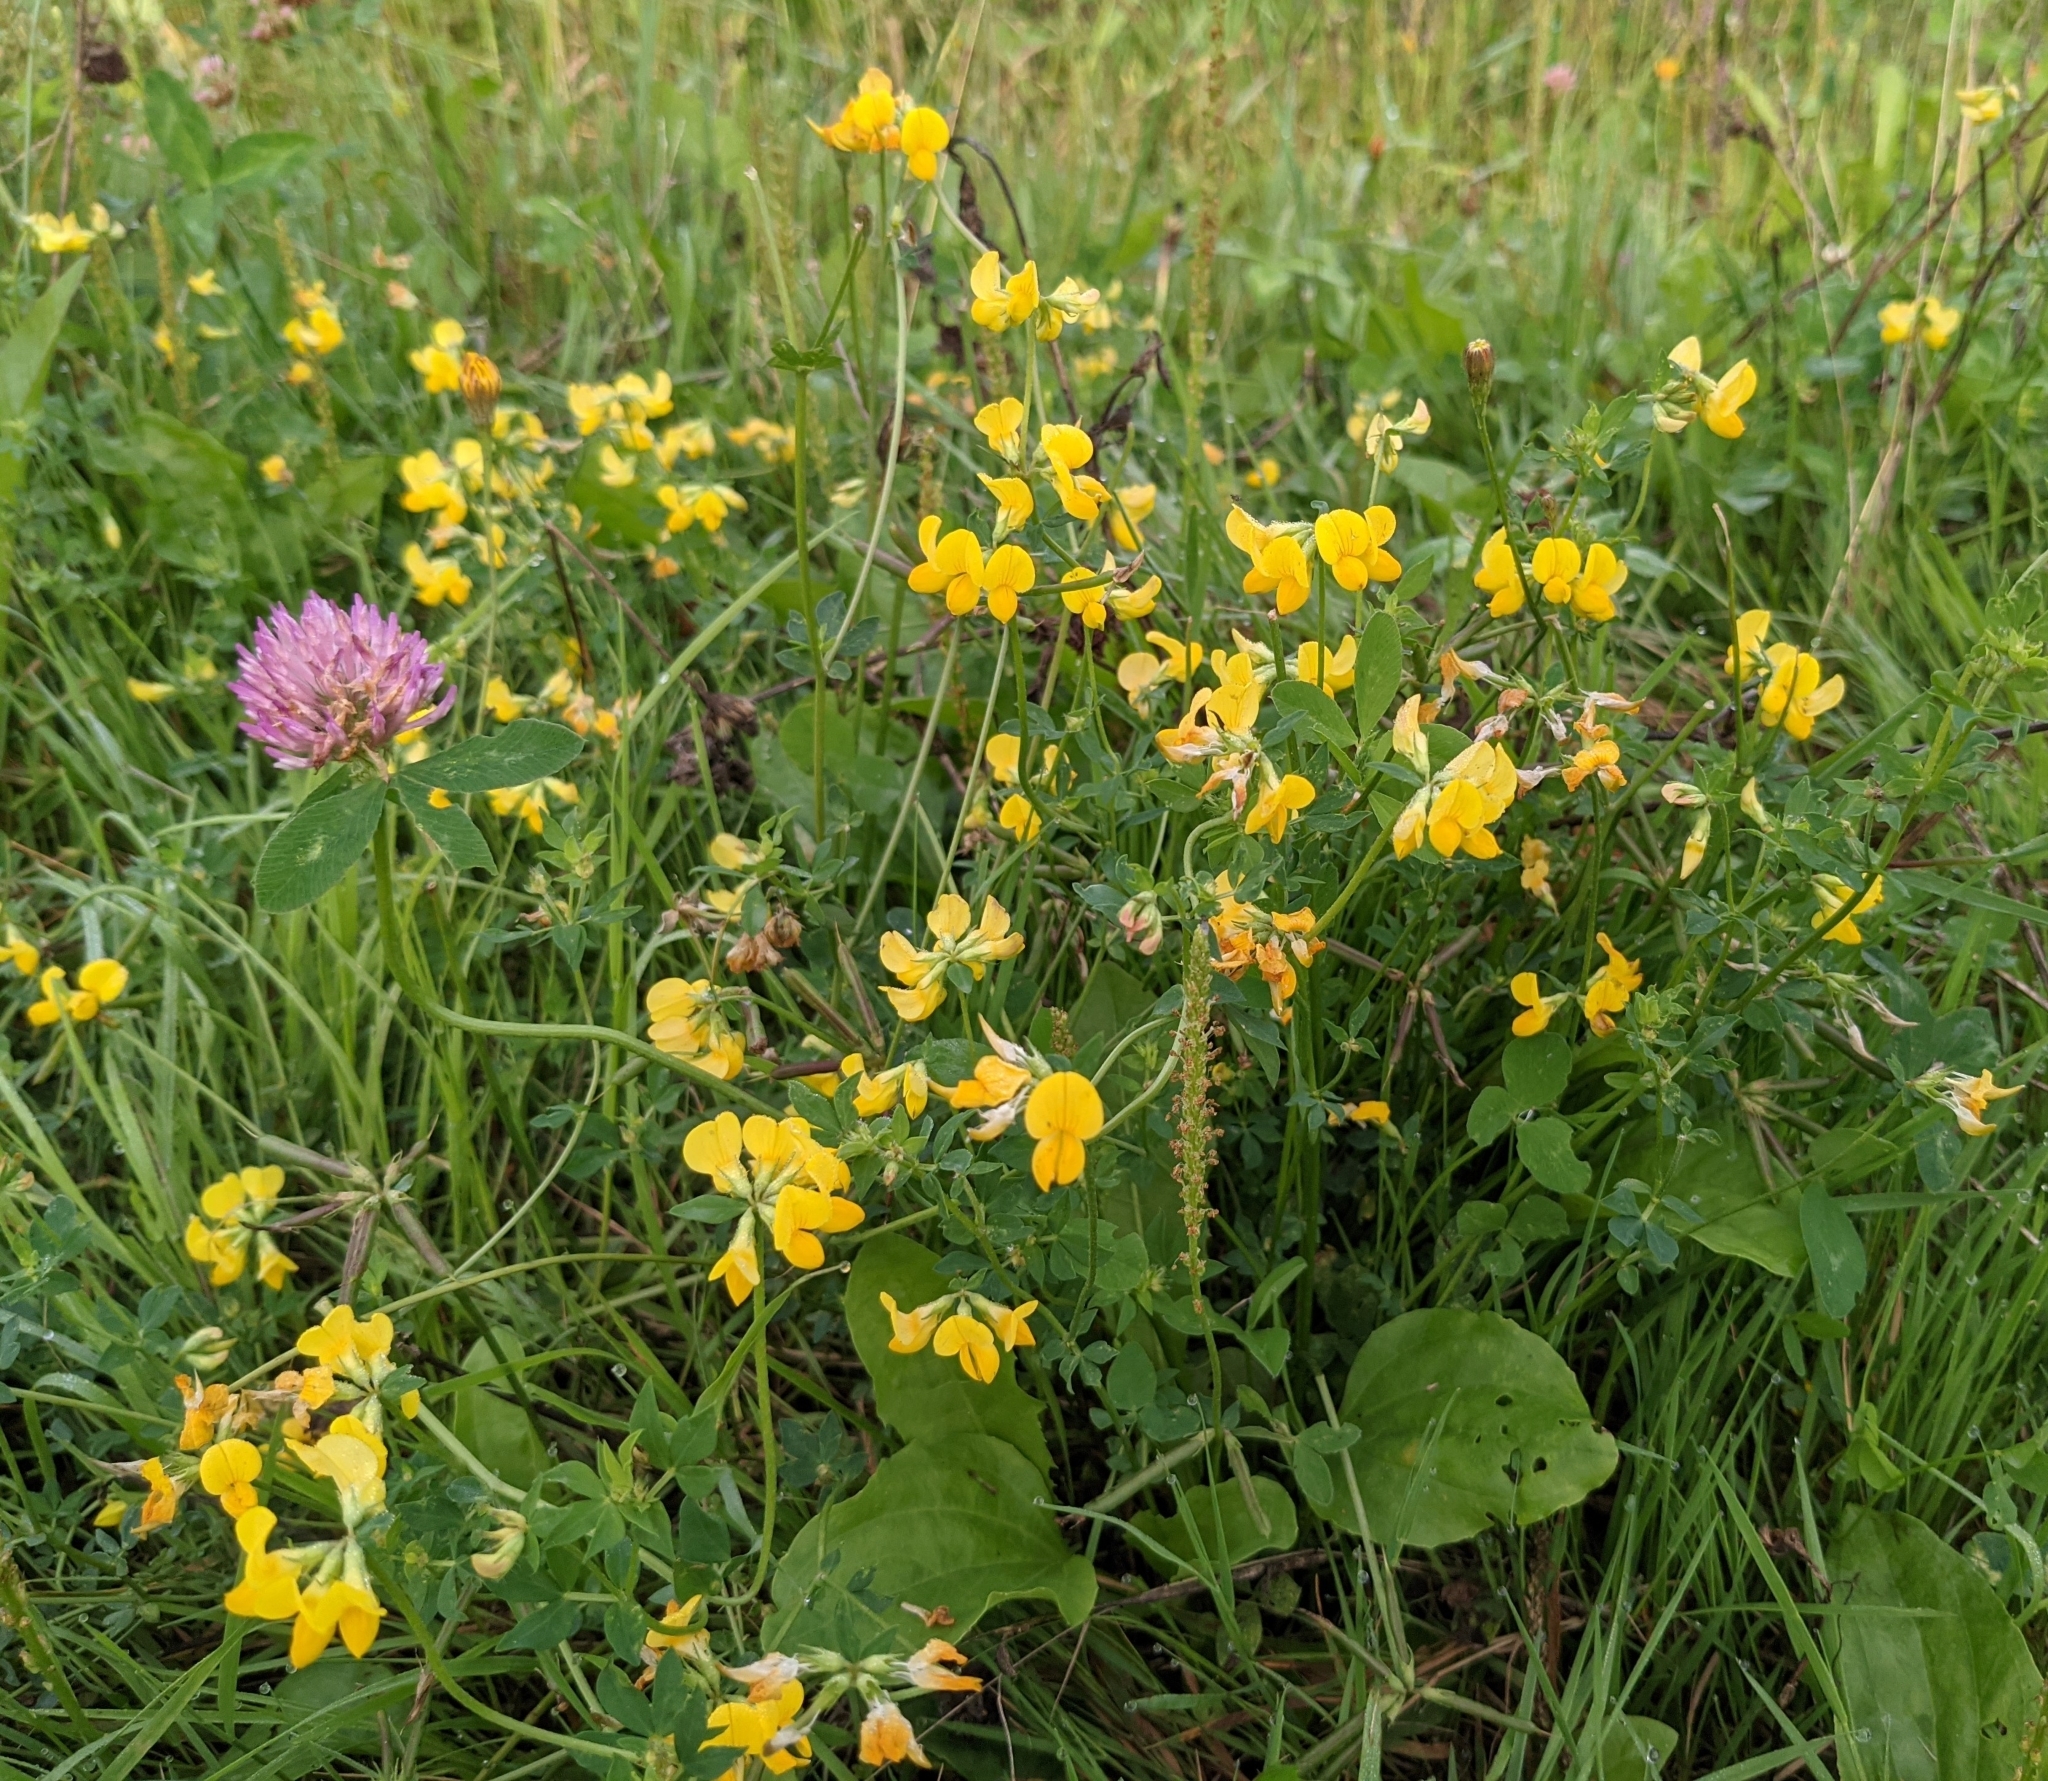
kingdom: Plantae
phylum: Tracheophyta
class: Magnoliopsida
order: Fabales
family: Fabaceae
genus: Lotus
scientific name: Lotus corniculatus
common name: Common bird's-foot-trefoil
